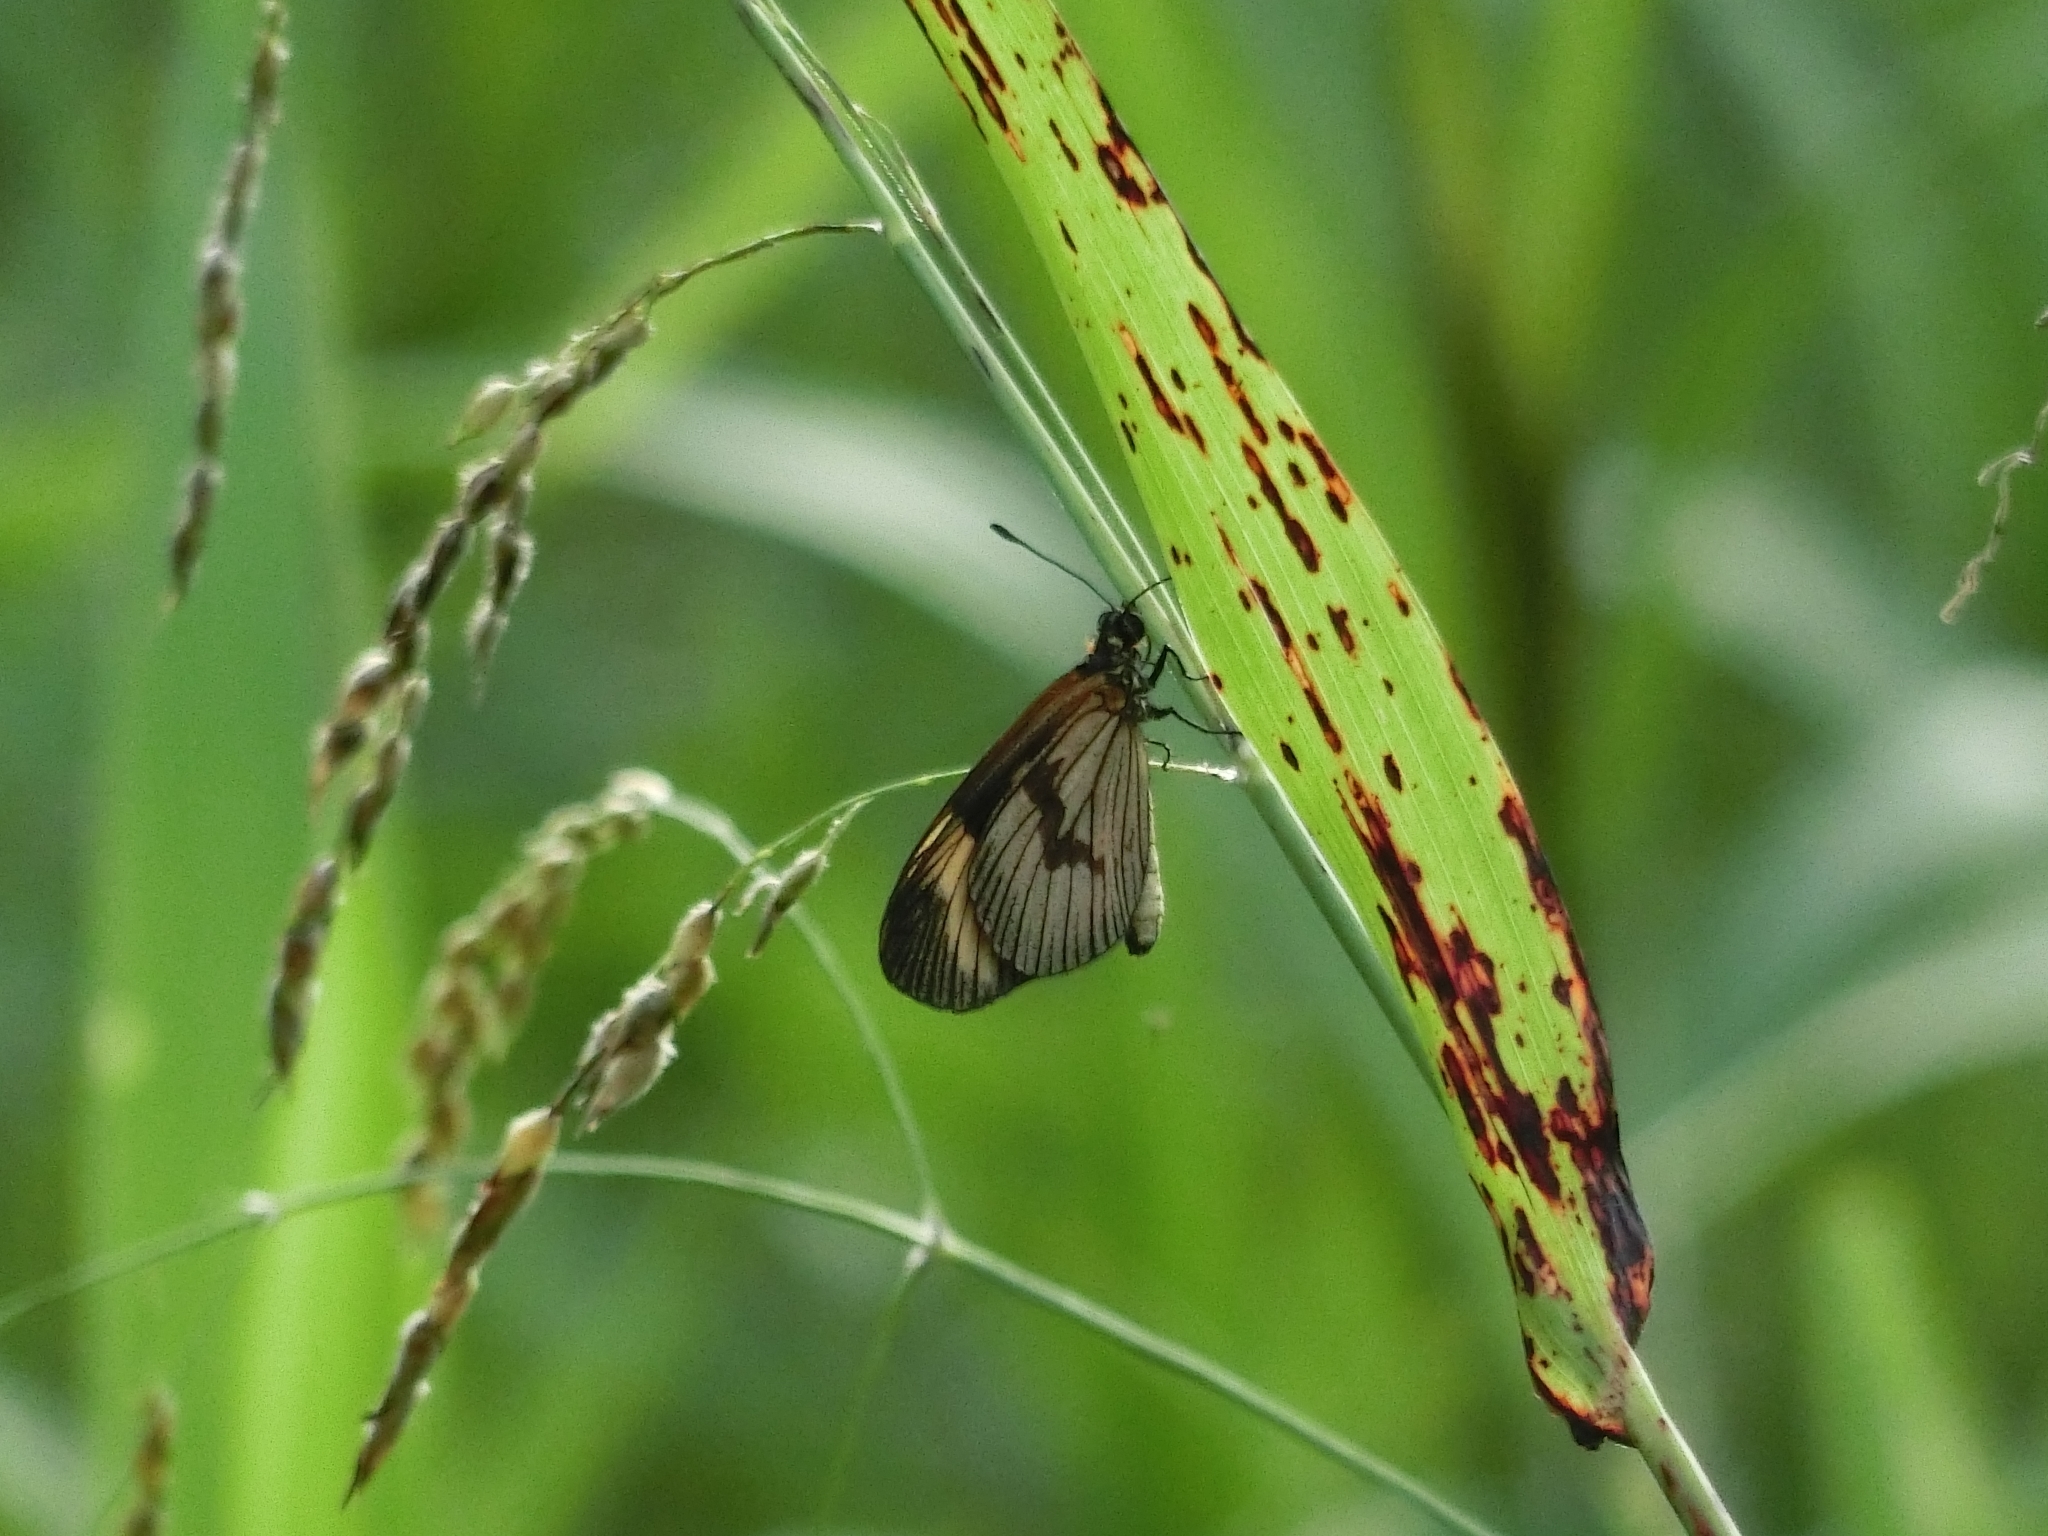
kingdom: Animalia
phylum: Arthropoda
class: Insecta
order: Lepidoptera
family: Nymphalidae
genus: Actinote
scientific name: Actinote thalia
